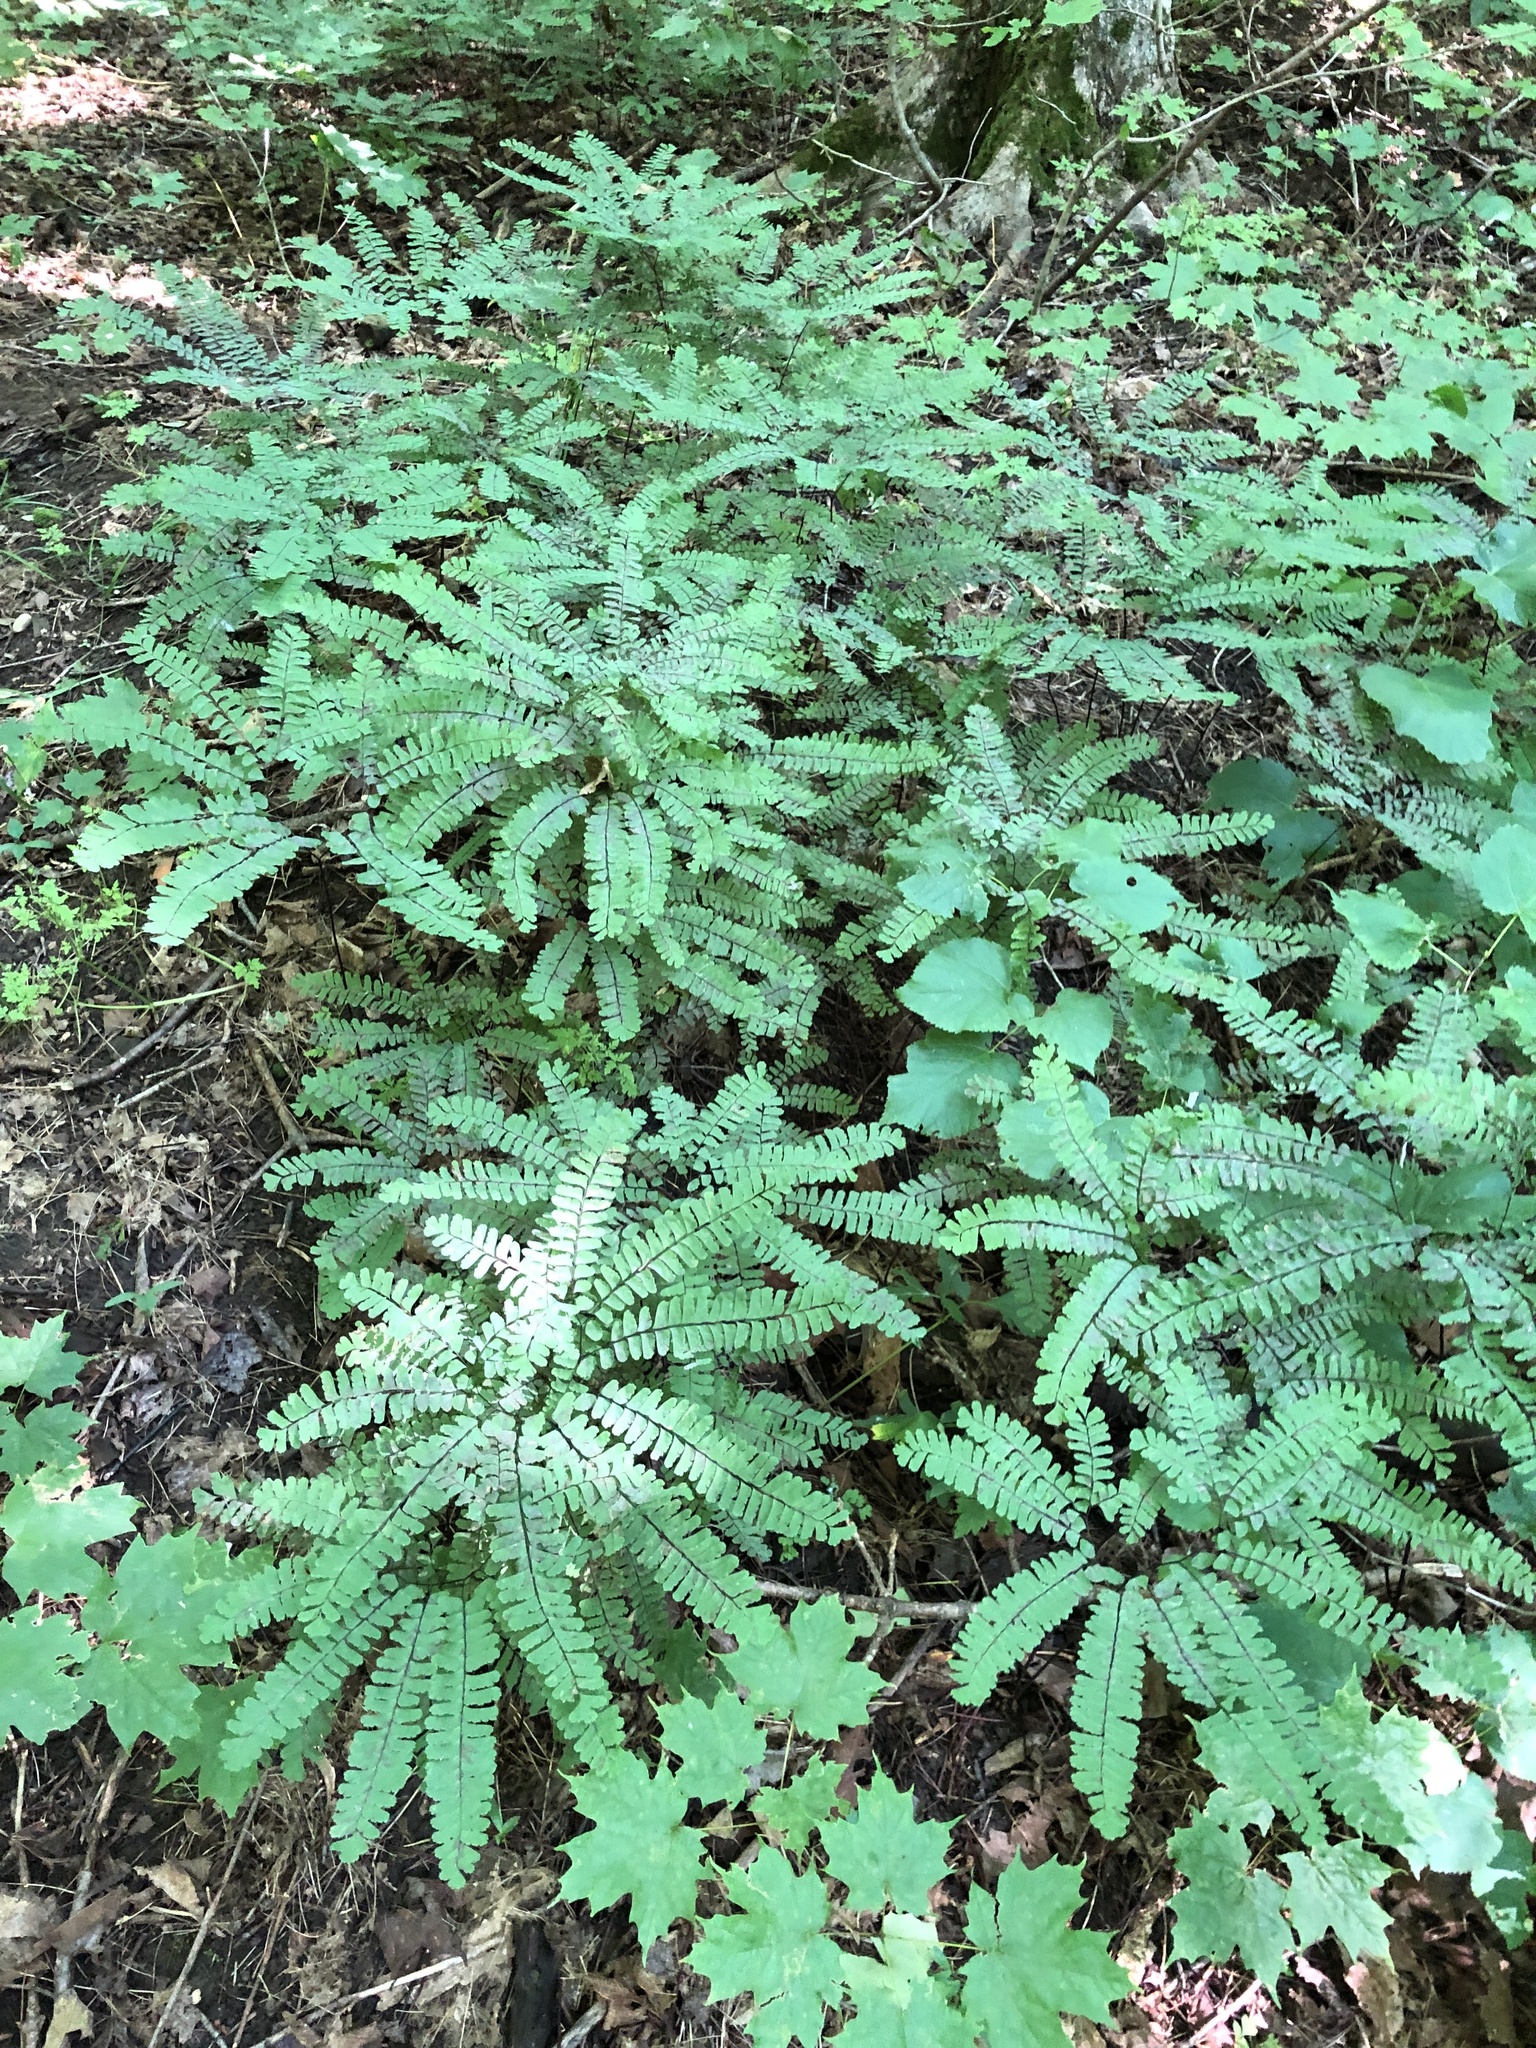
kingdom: Plantae
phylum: Tracheophyta
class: Polypodiopsida
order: Polypodiales
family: Pteridaceae
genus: Adiantum
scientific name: Adiantum pedatum
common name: Five-finger fern
